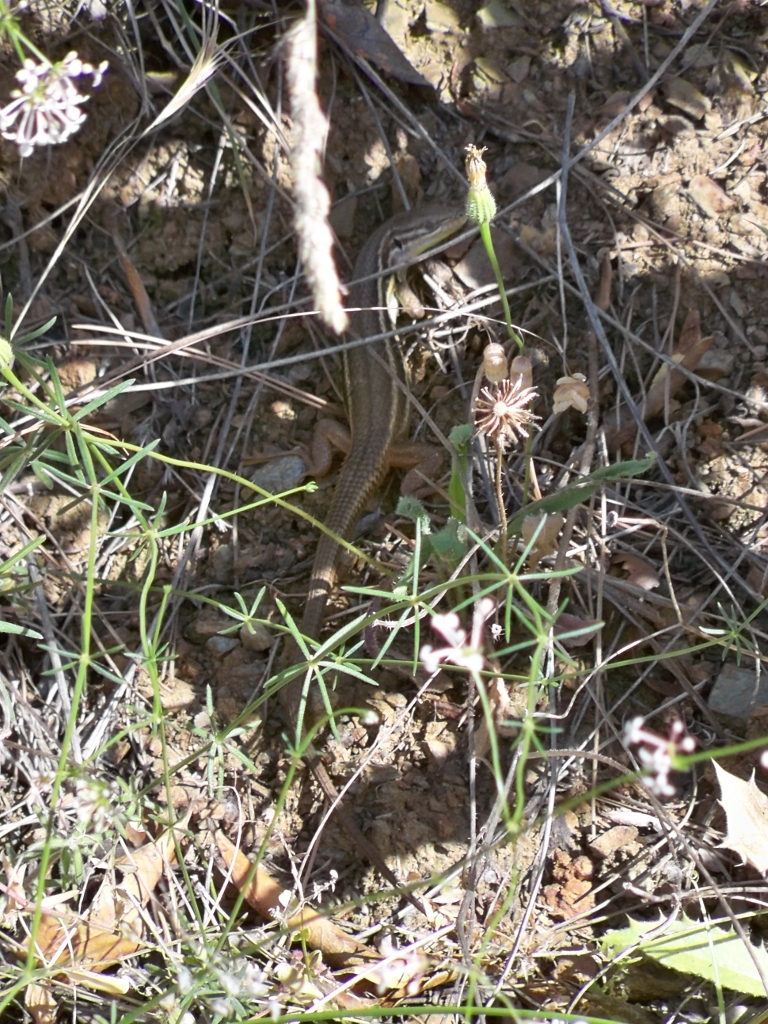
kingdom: Animalia
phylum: Chordata
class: Squamata
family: Lacertidae
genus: Psammodromus
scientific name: Psammodromus algirus
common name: Algerian psammodromus
